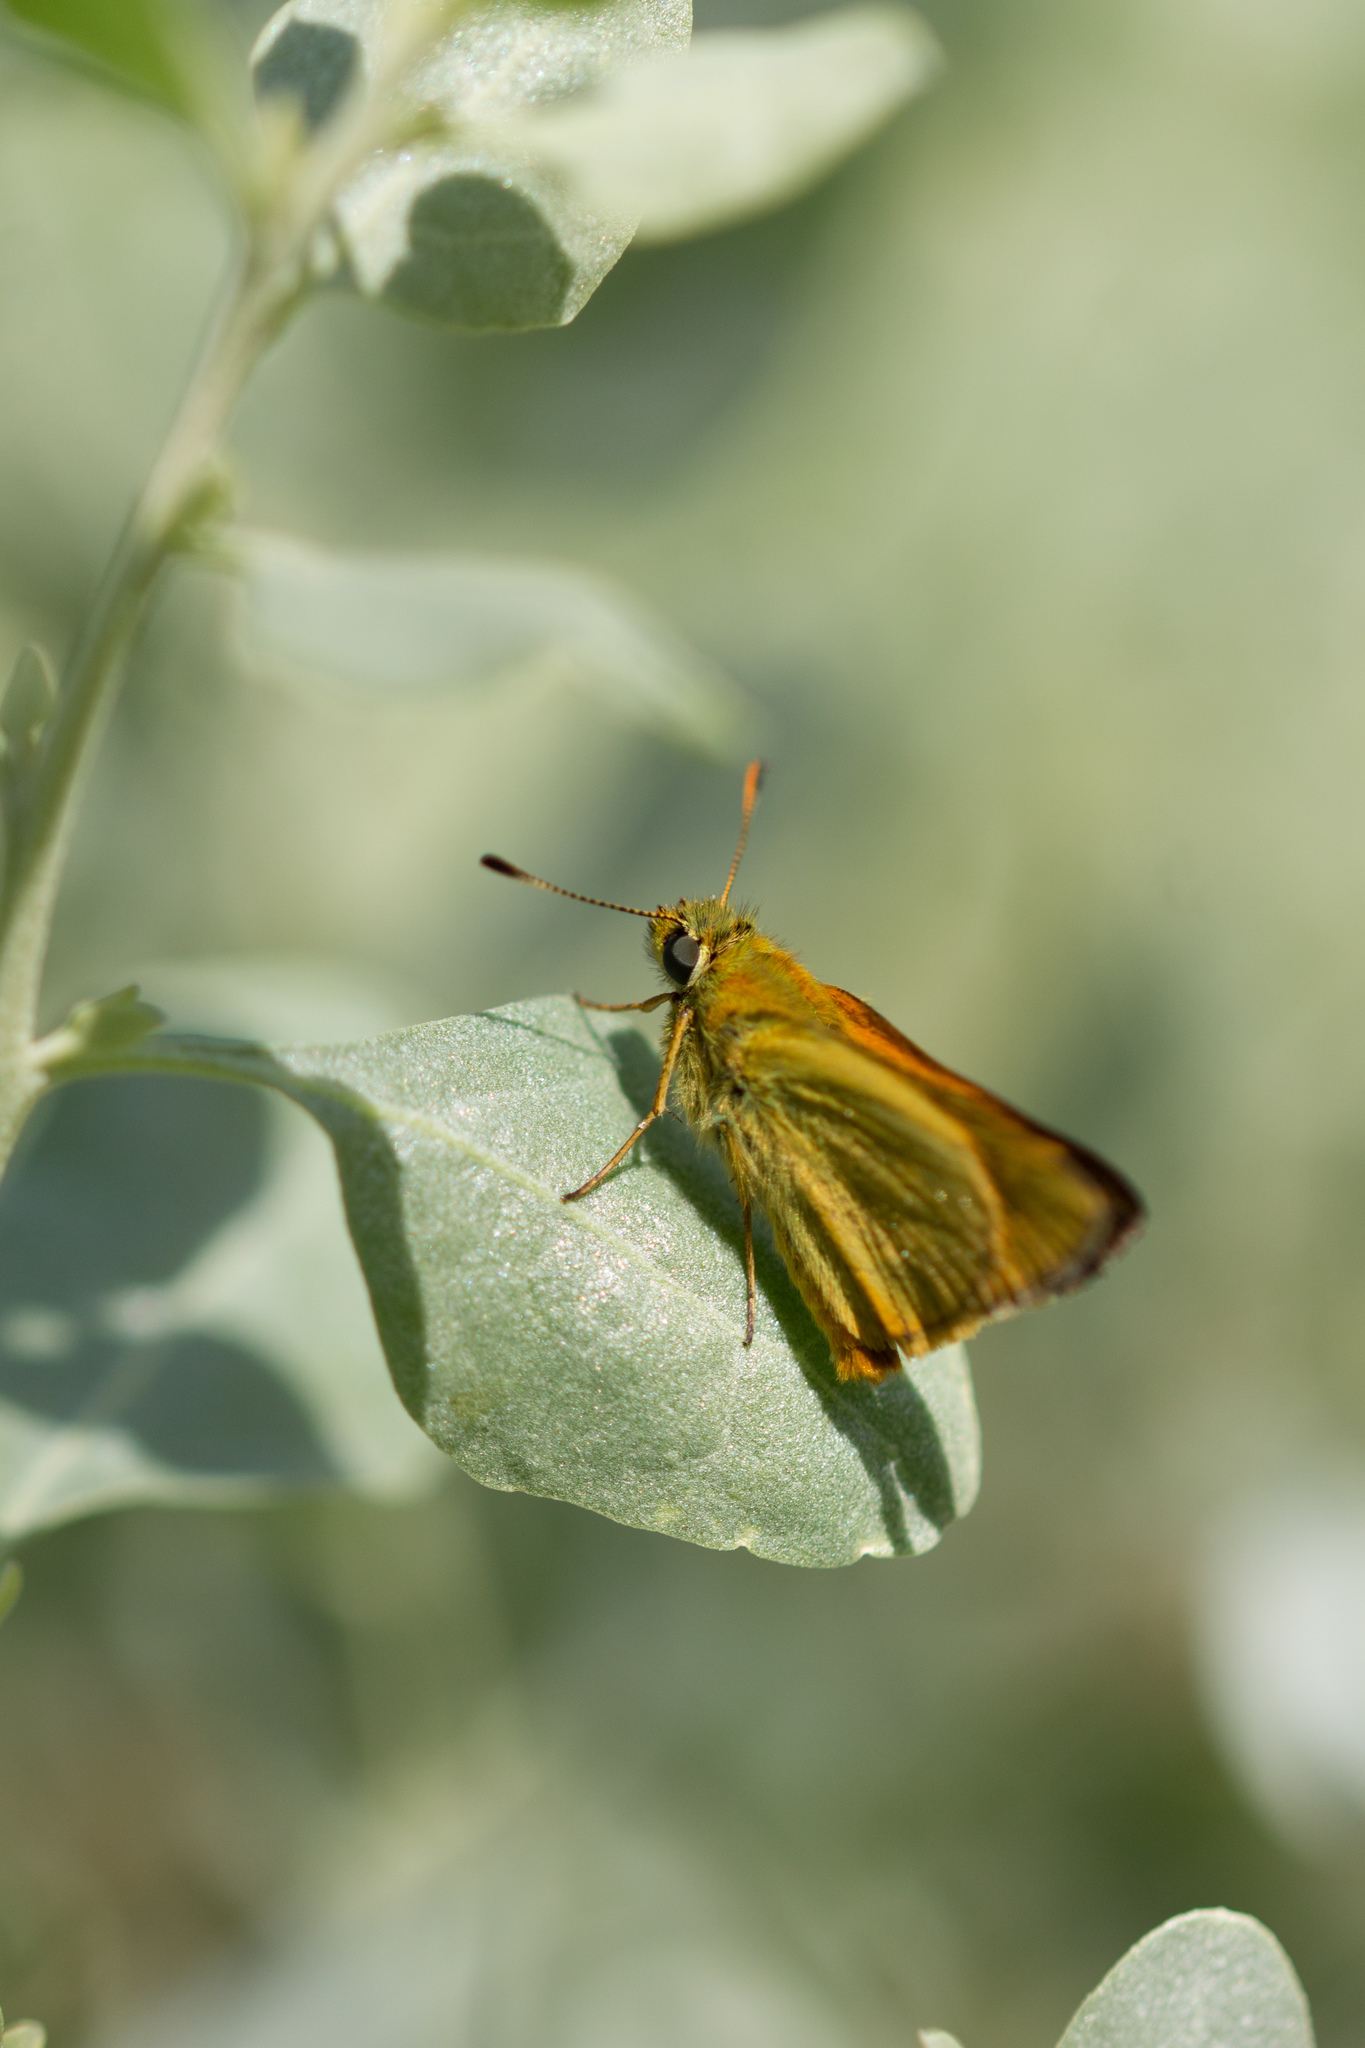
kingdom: Animalia
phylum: Arthropoda
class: Insecta
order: Lepidoptera
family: Hesperiidae
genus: Ochlodes
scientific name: Ochlodes venata
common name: Large skipper
